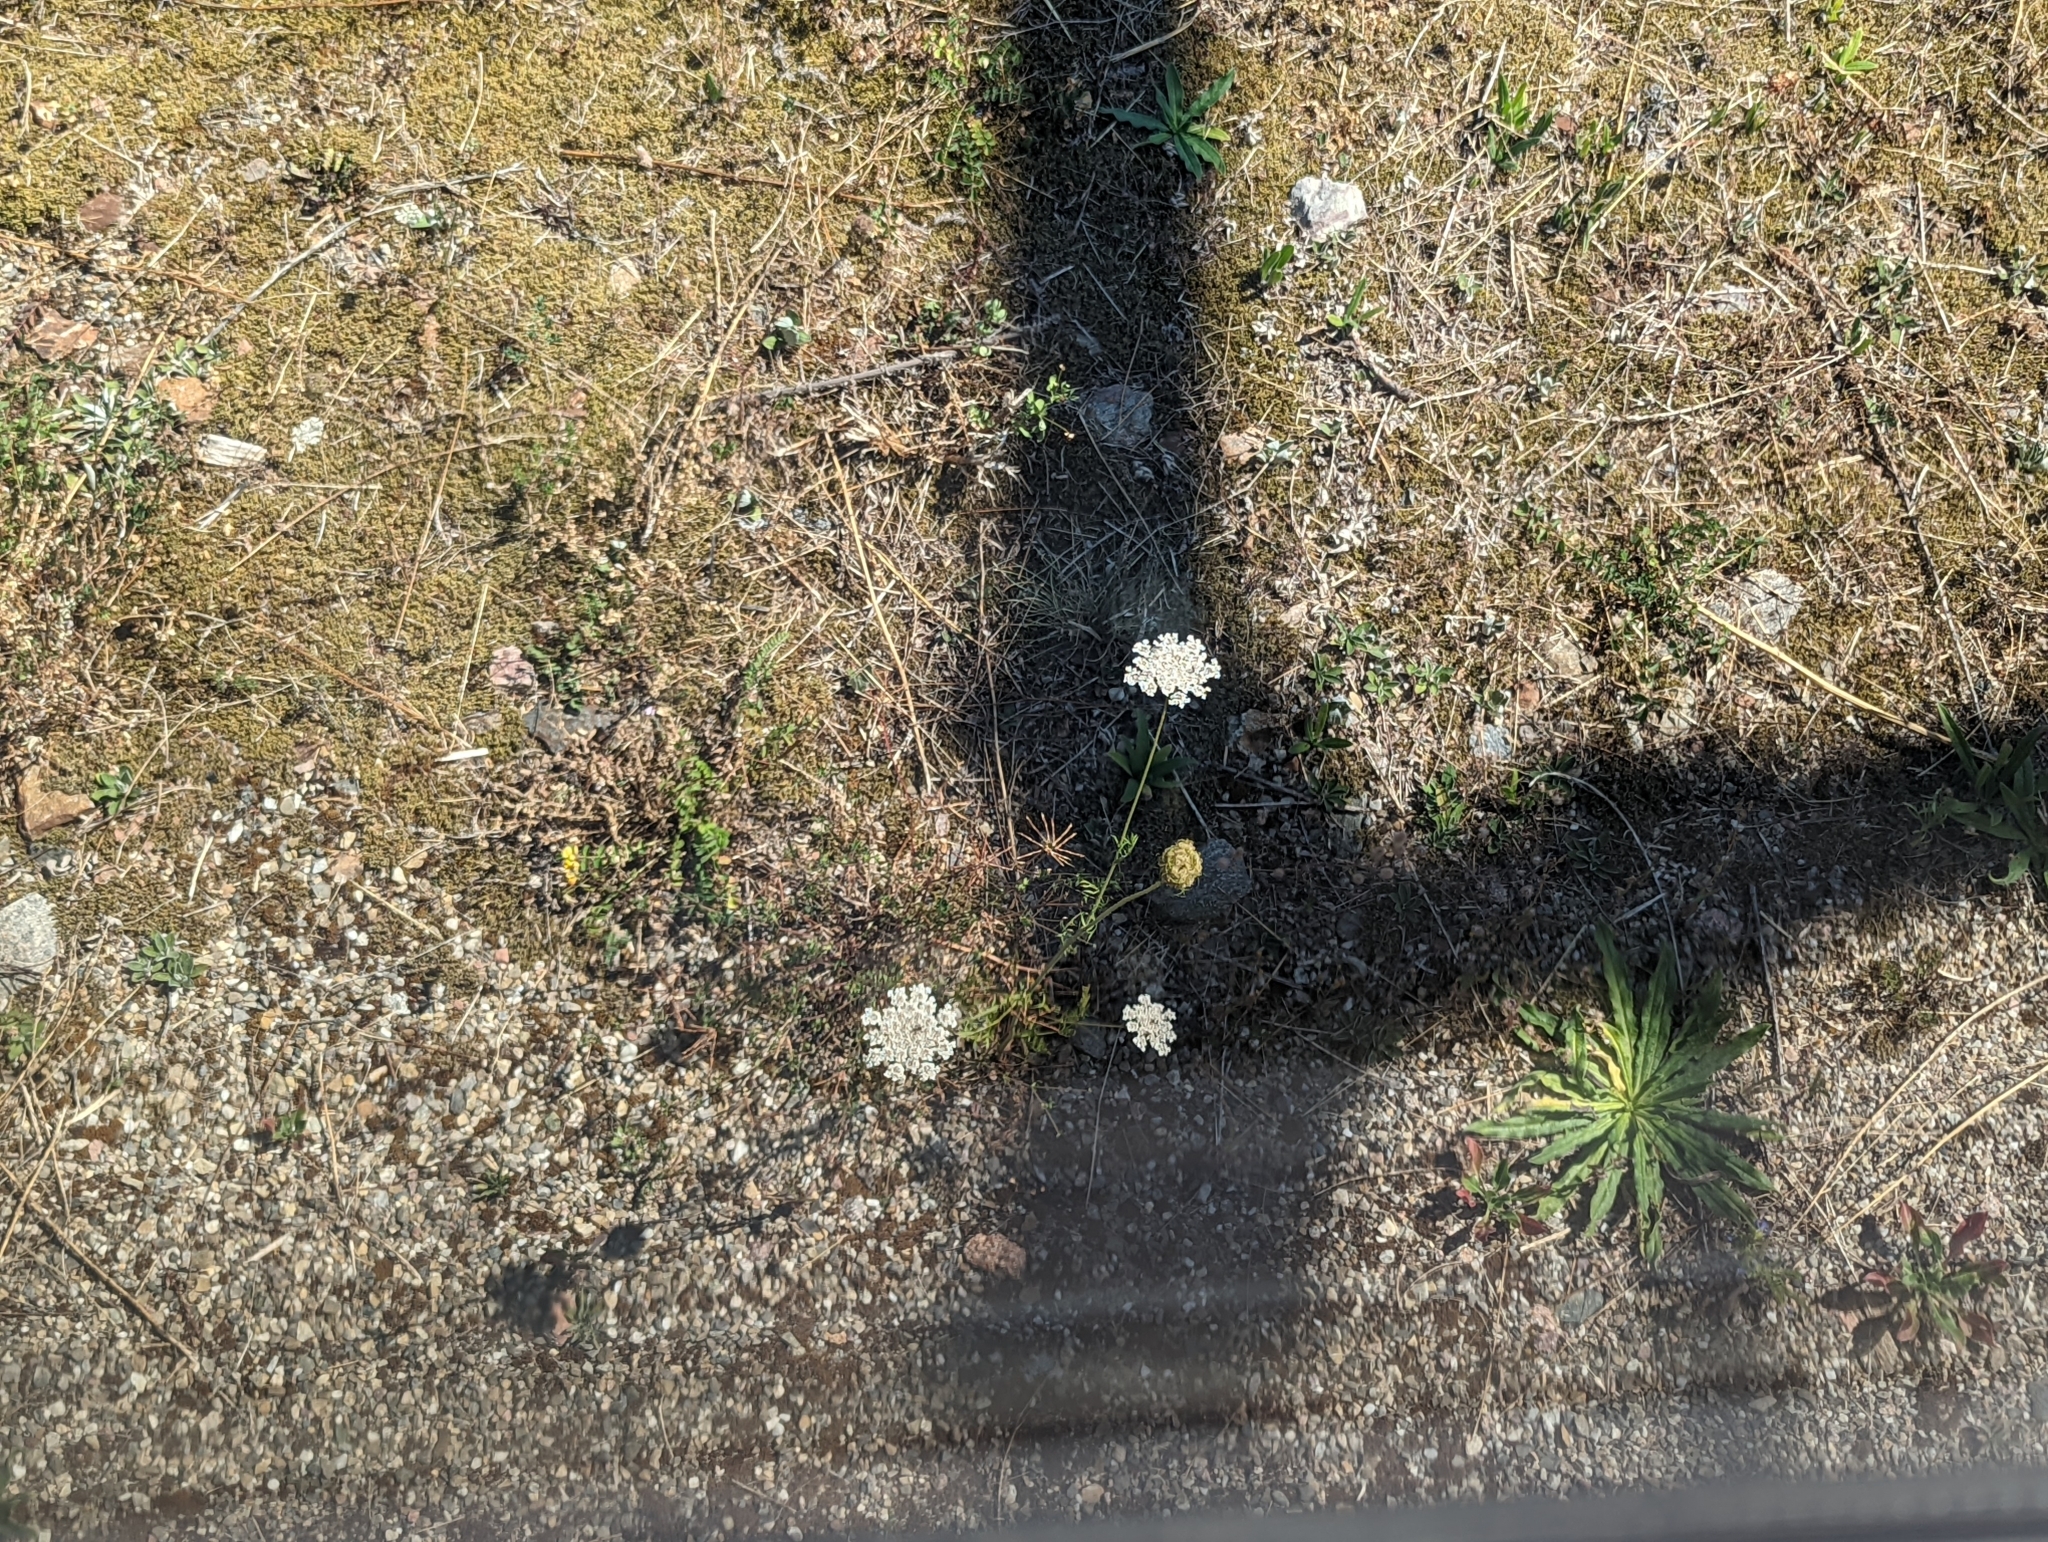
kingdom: Plantae
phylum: Tracheophyta
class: Magnoliopsida
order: Apiales
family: Apiaceae
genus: Daucus
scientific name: Daucus carota
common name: Wild carrot
